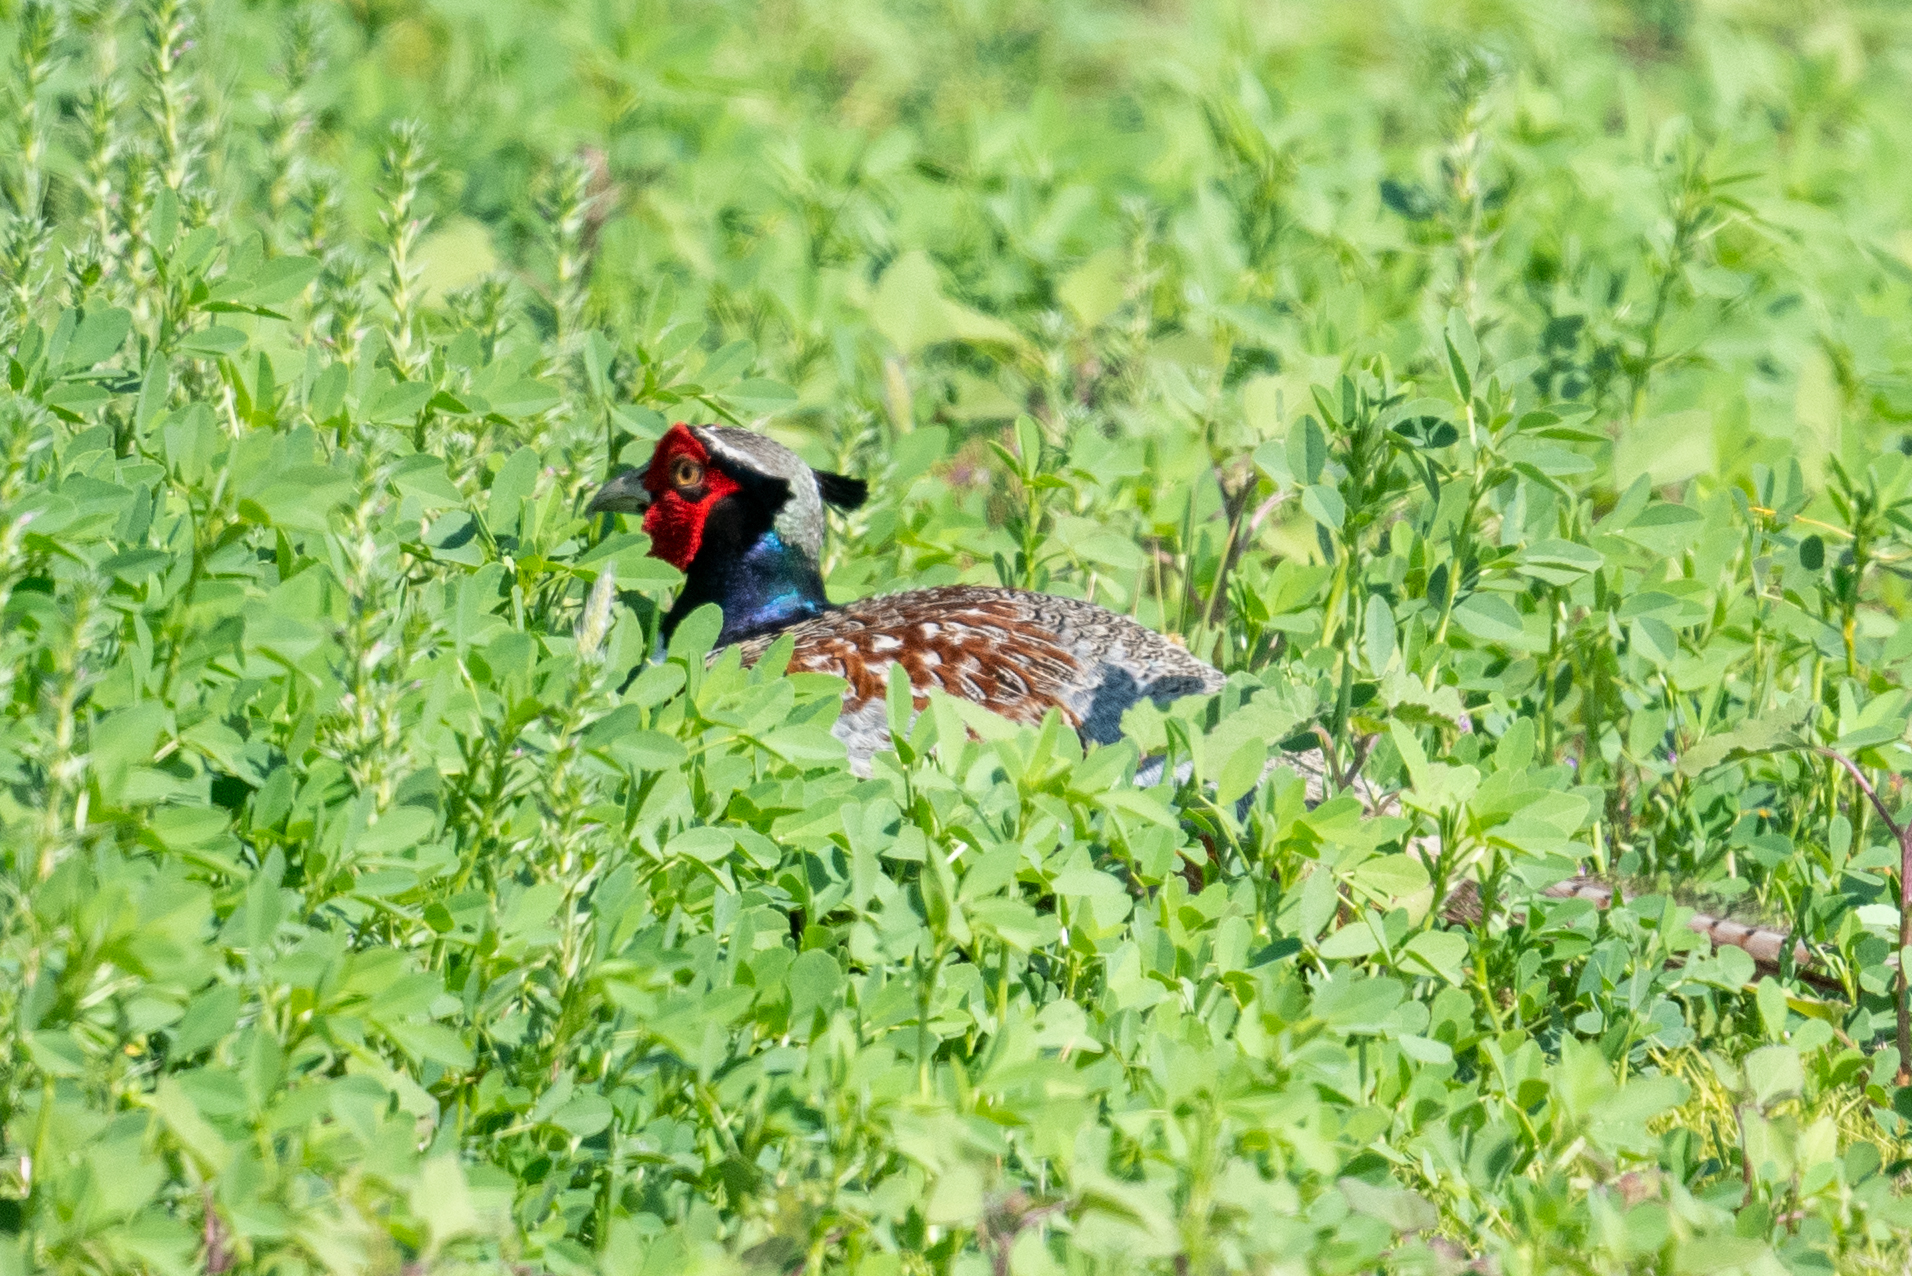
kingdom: Animalia
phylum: Chordata
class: Aves
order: Galliformes
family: Phasianidae
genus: Phasianus
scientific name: Phasianus colchicus
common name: Common pheasant
